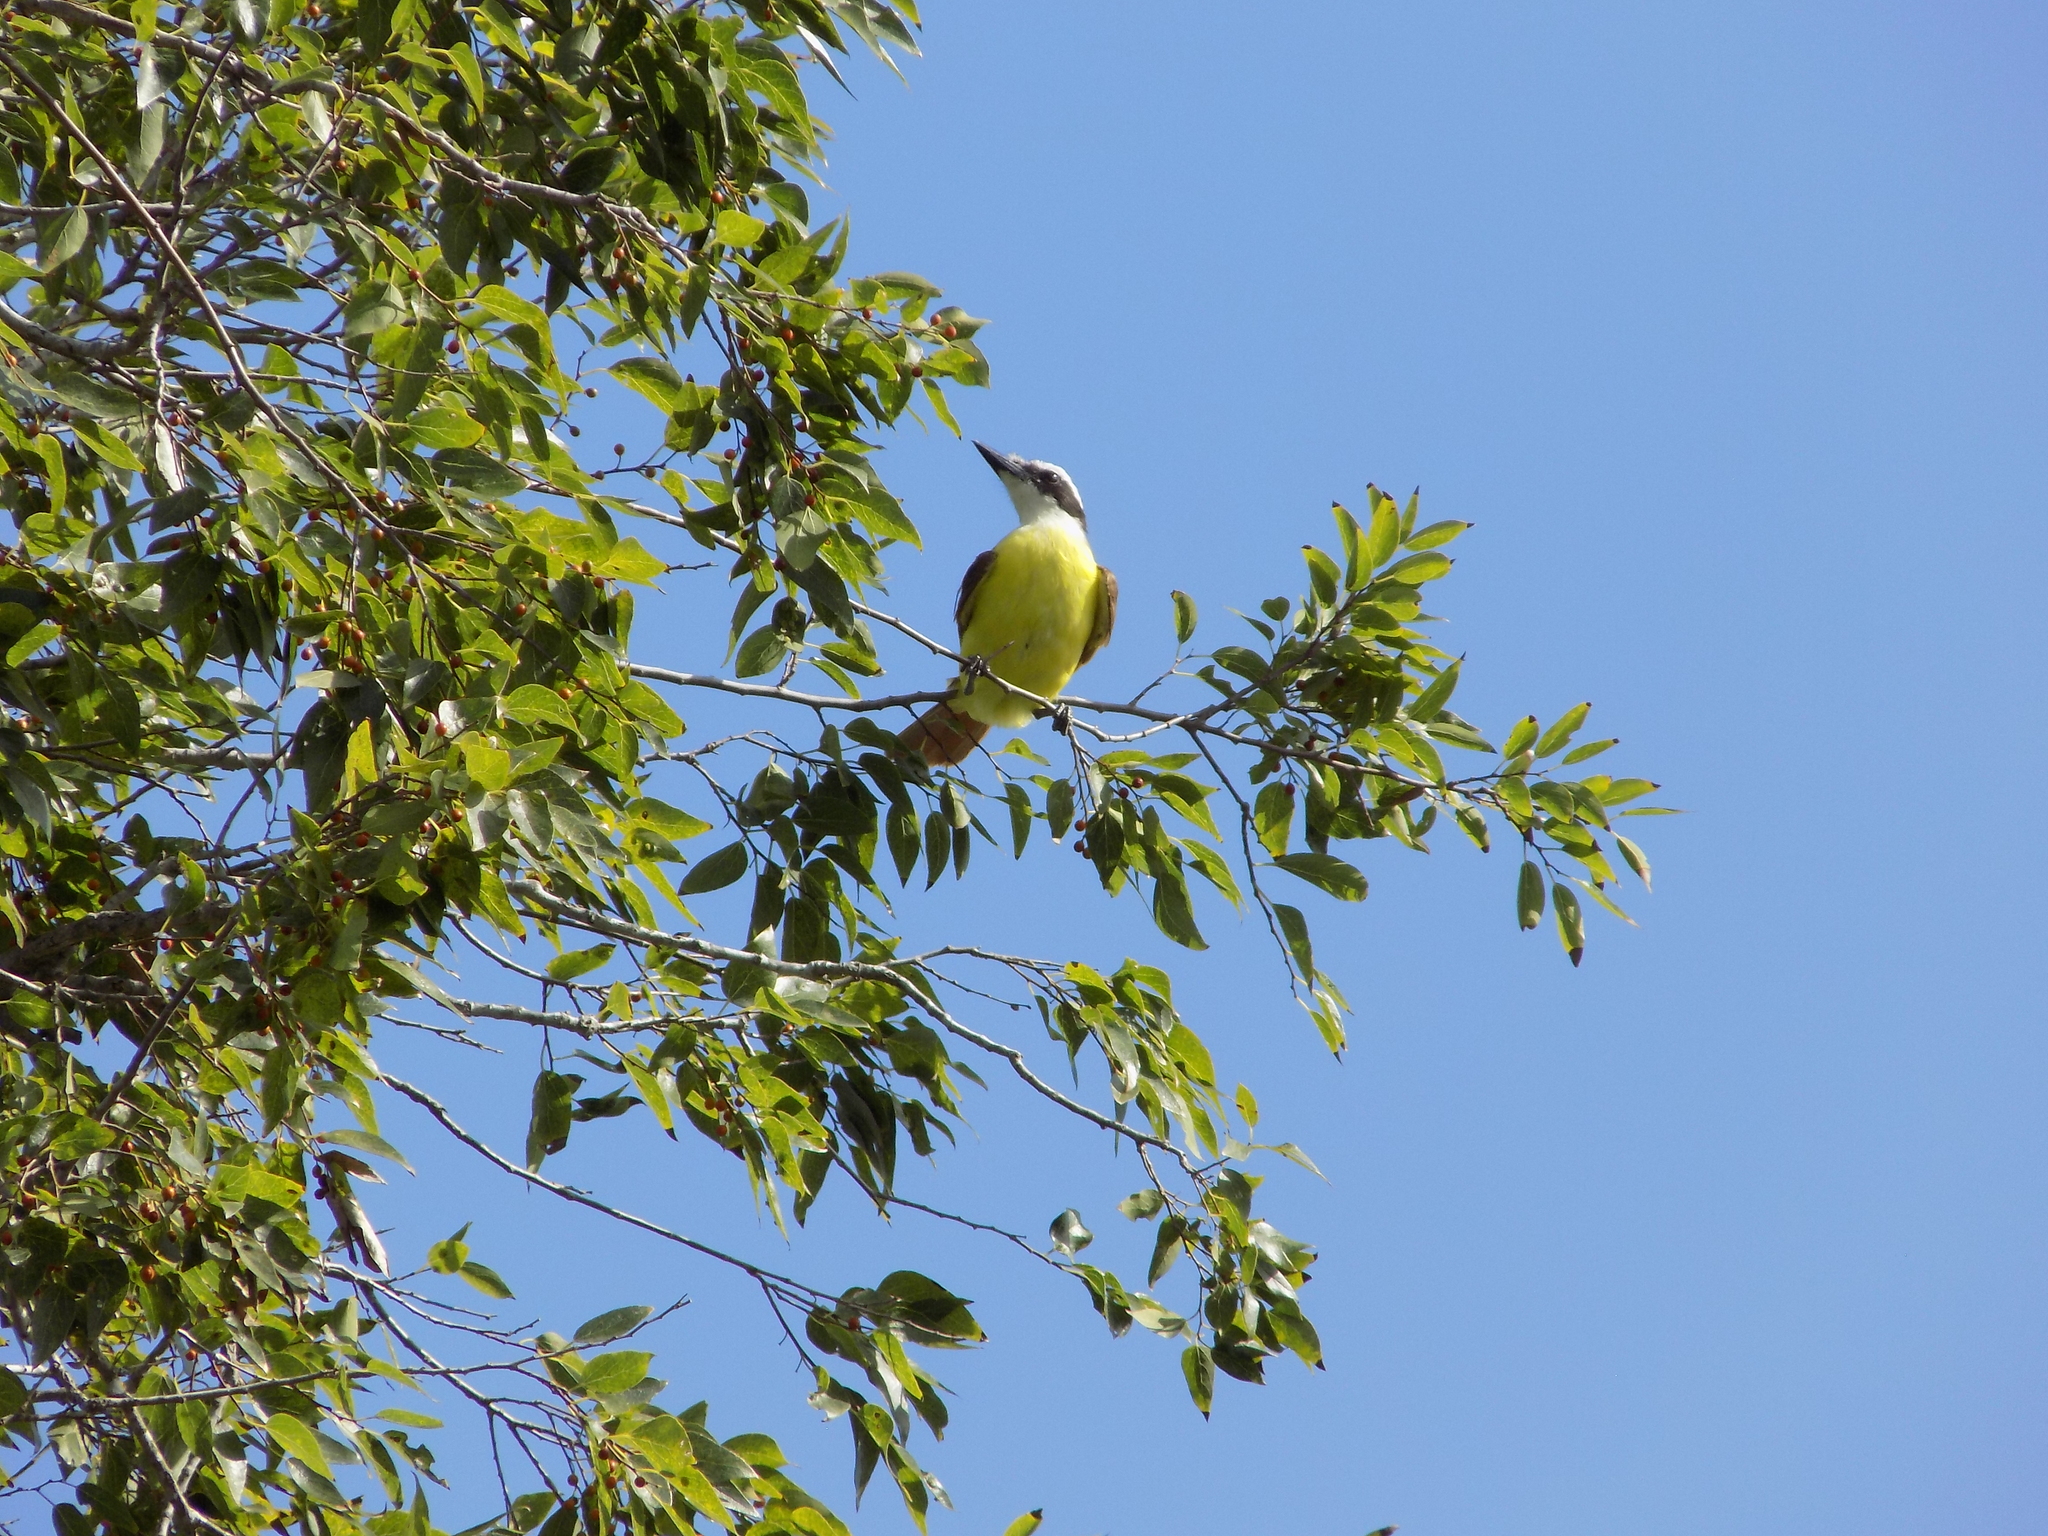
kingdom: Animalia
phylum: Chordata
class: Aves
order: Passeriformes
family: Tyrannidae
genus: Pitangus
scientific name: Pitangus sulphuratus
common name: Great kiskadee
